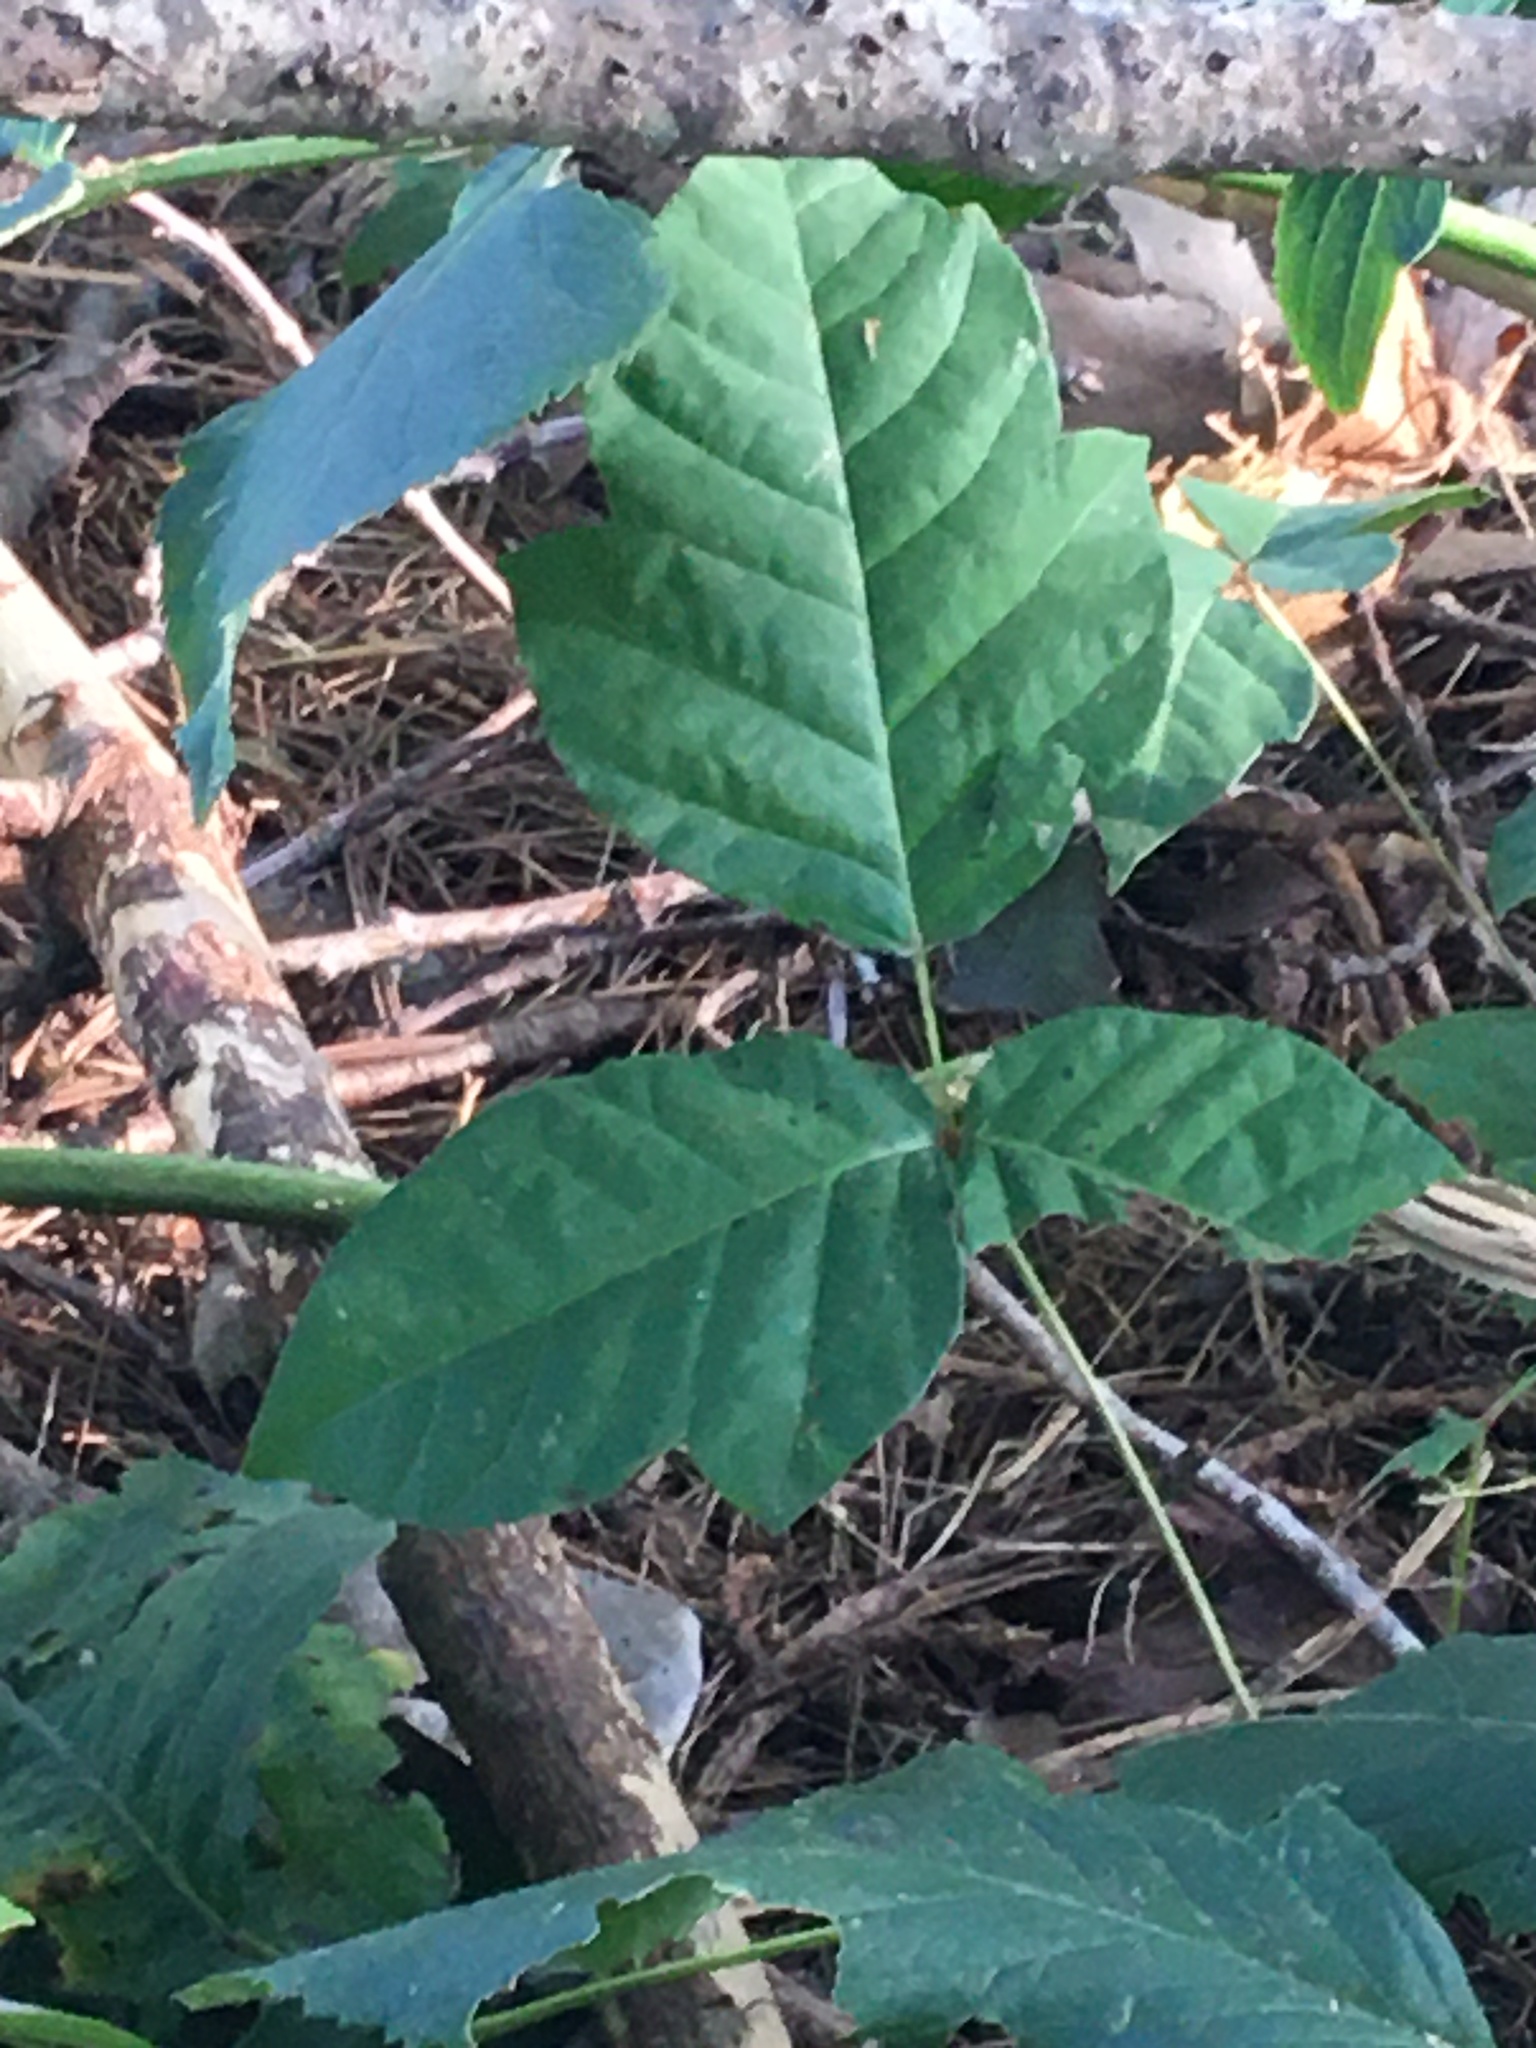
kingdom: Plantae
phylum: Tracheophyta
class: Magnoliopsida
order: Sapindales
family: Anacardiaceae
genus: Toxicodendron
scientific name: Toxicodendron radicans
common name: Poison ivy
